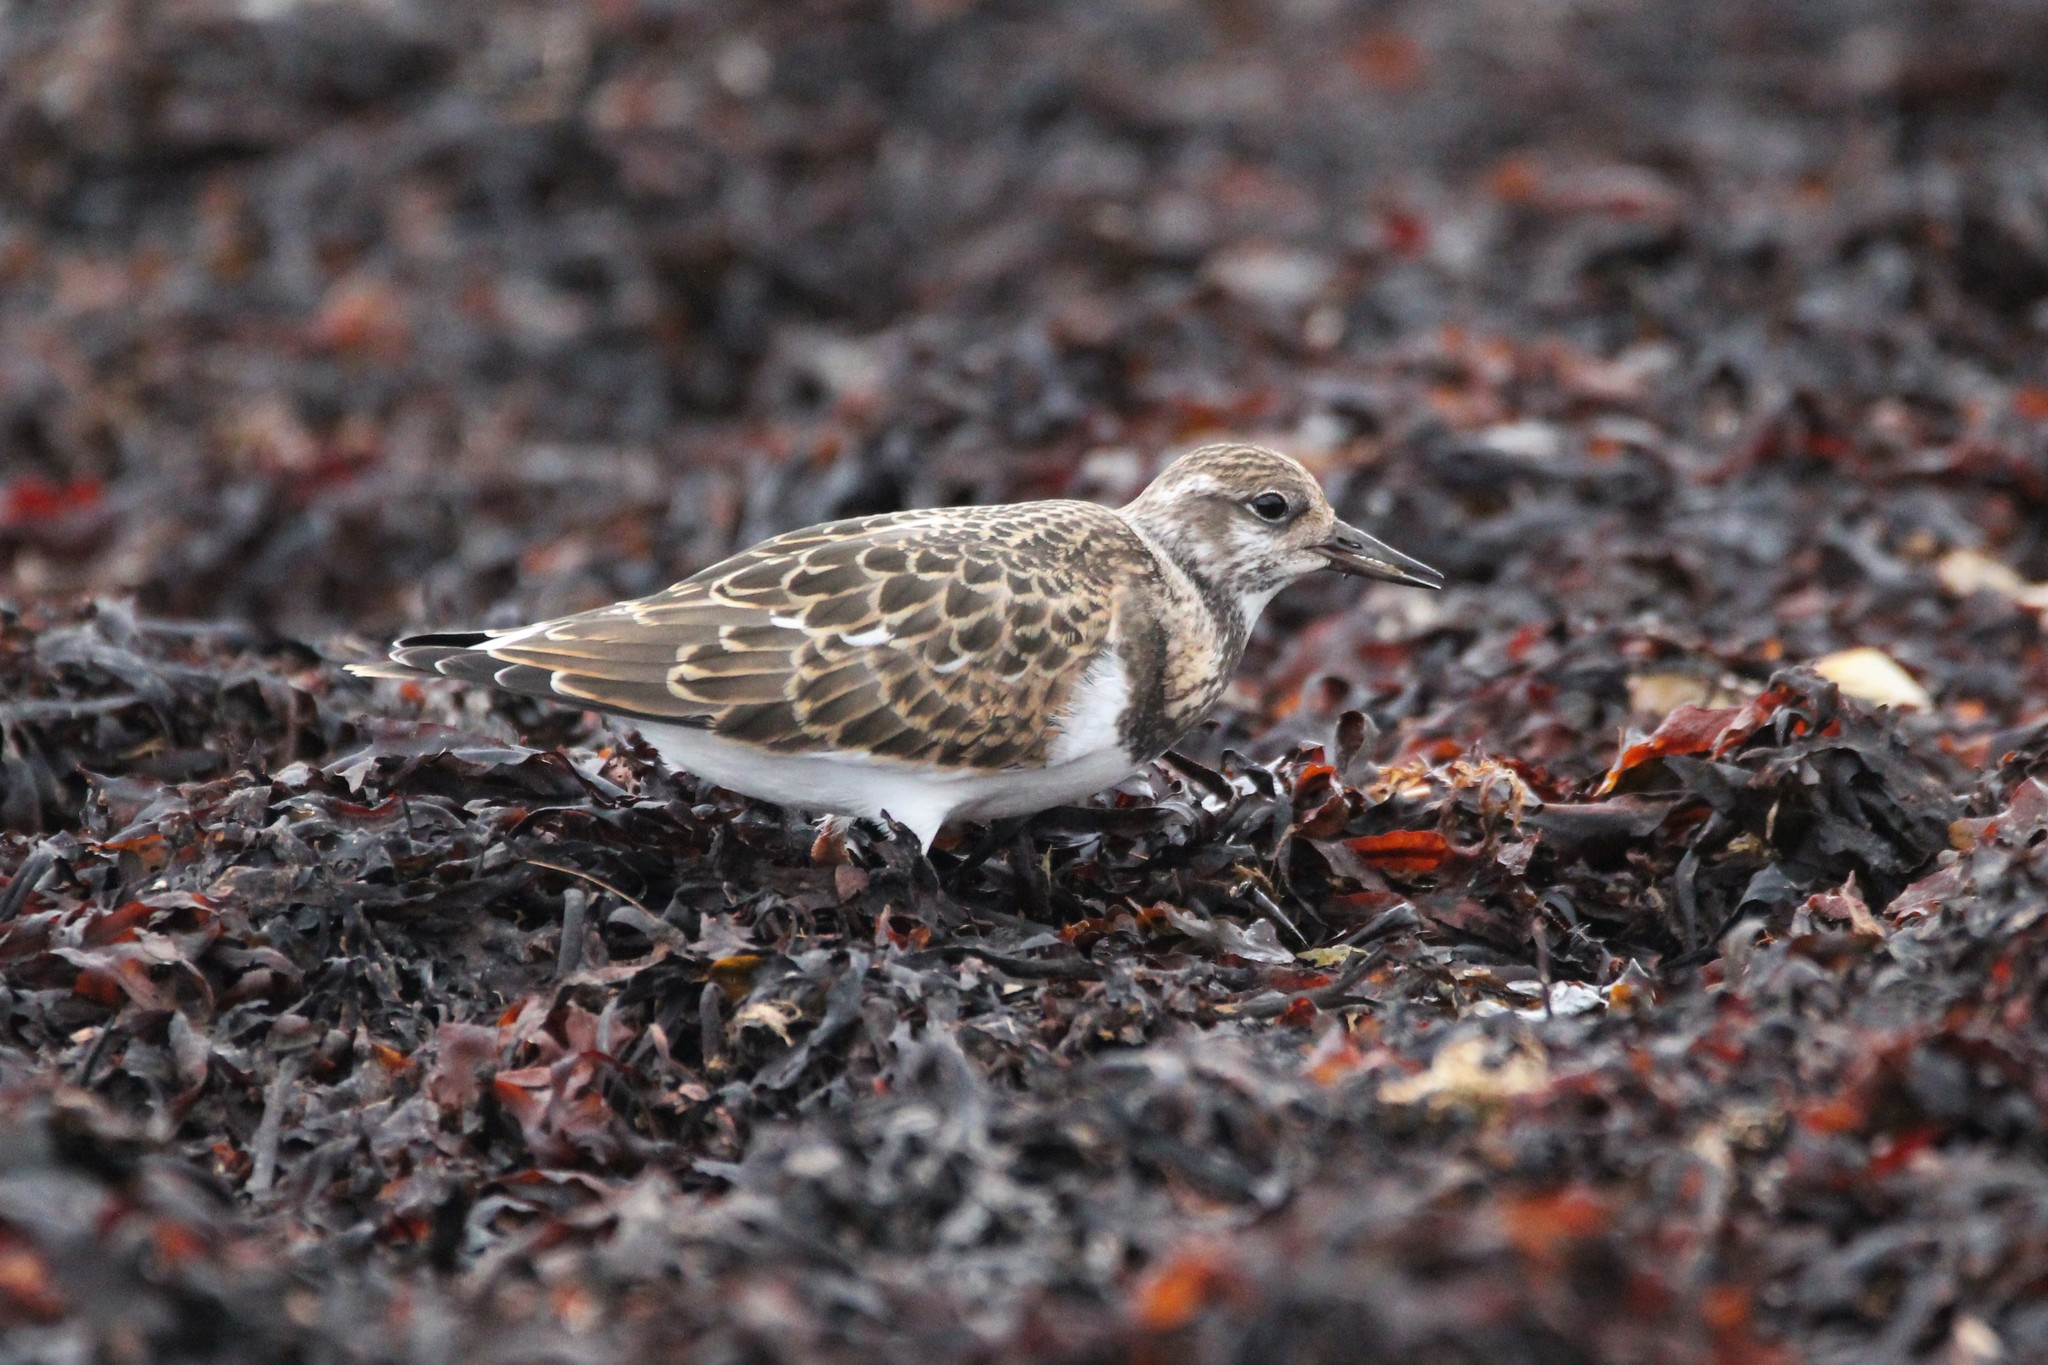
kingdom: Animalia
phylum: Chordata
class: Aves
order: Charadriiformes
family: Scolopacidae
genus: Arenaria
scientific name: Arenaria interpres
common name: Ruddy turnstone
